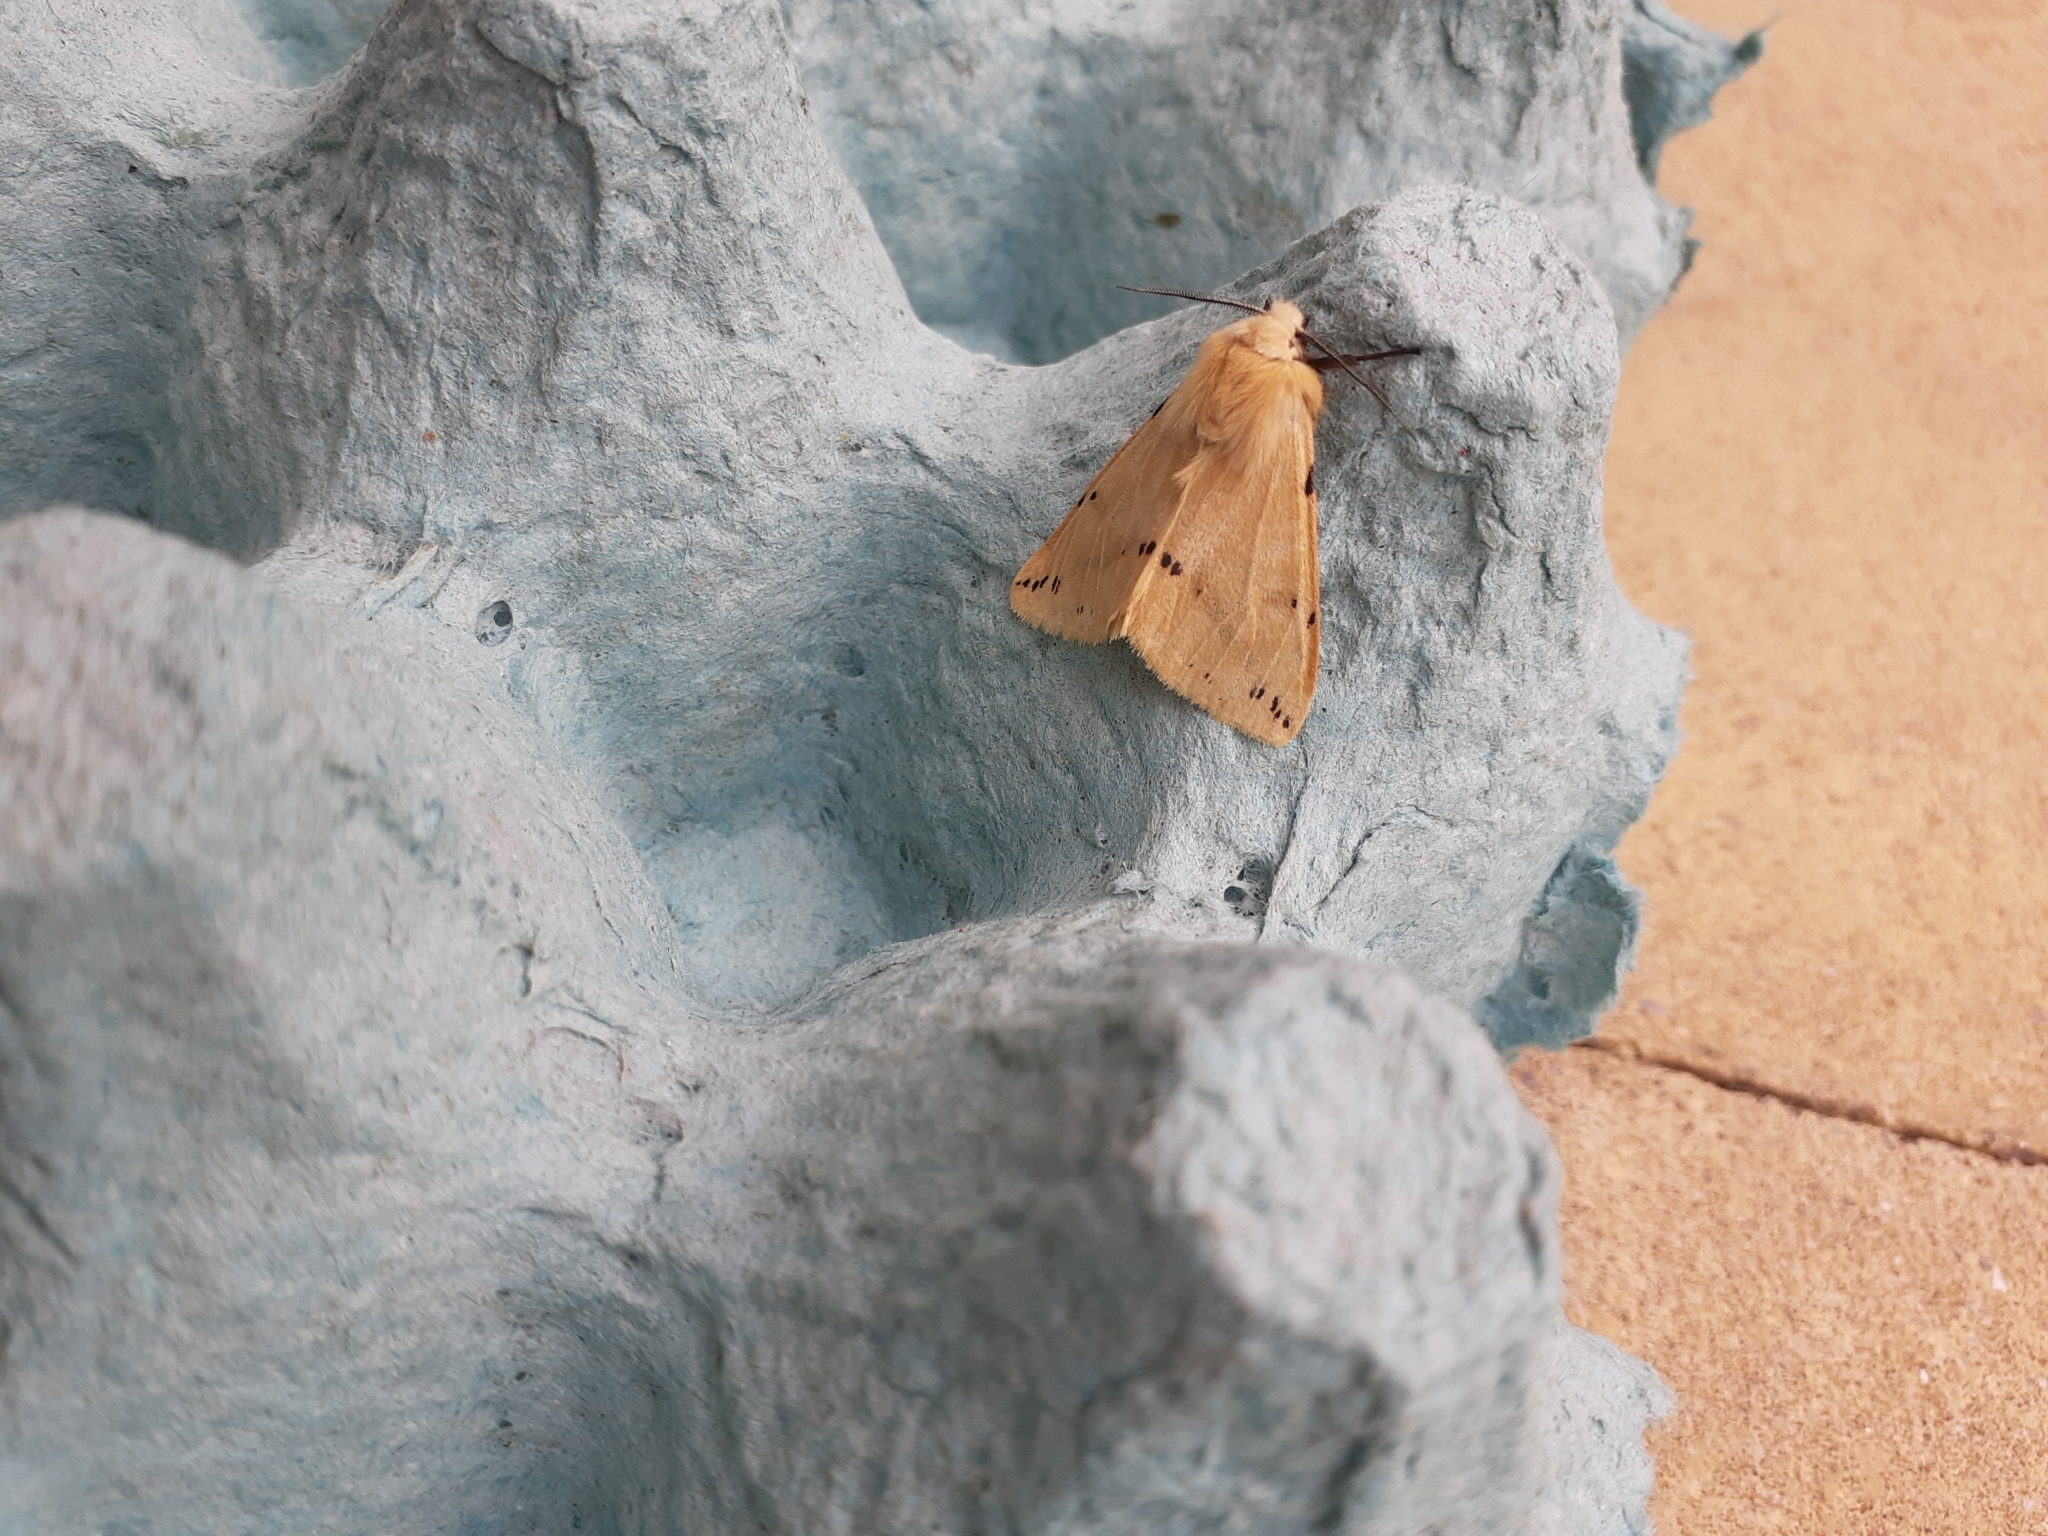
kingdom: Animalia
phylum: Arthropoda
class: Insecta
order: Lepidoptera
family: Erebidae
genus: Spilarctia
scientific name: Spilarctia lutea
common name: Buff ermine
